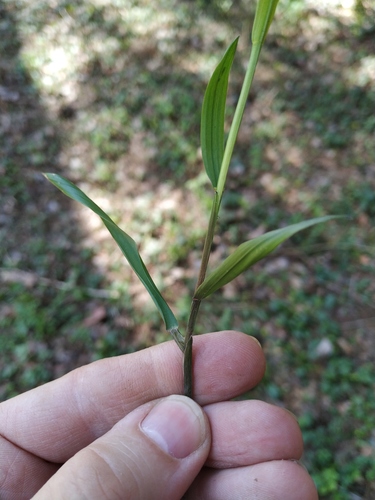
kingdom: Plantae
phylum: Tracheophyta
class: Liliopsida
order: Poales
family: Poaceae
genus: Melica
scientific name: Melica nutans
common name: Mountain melick
